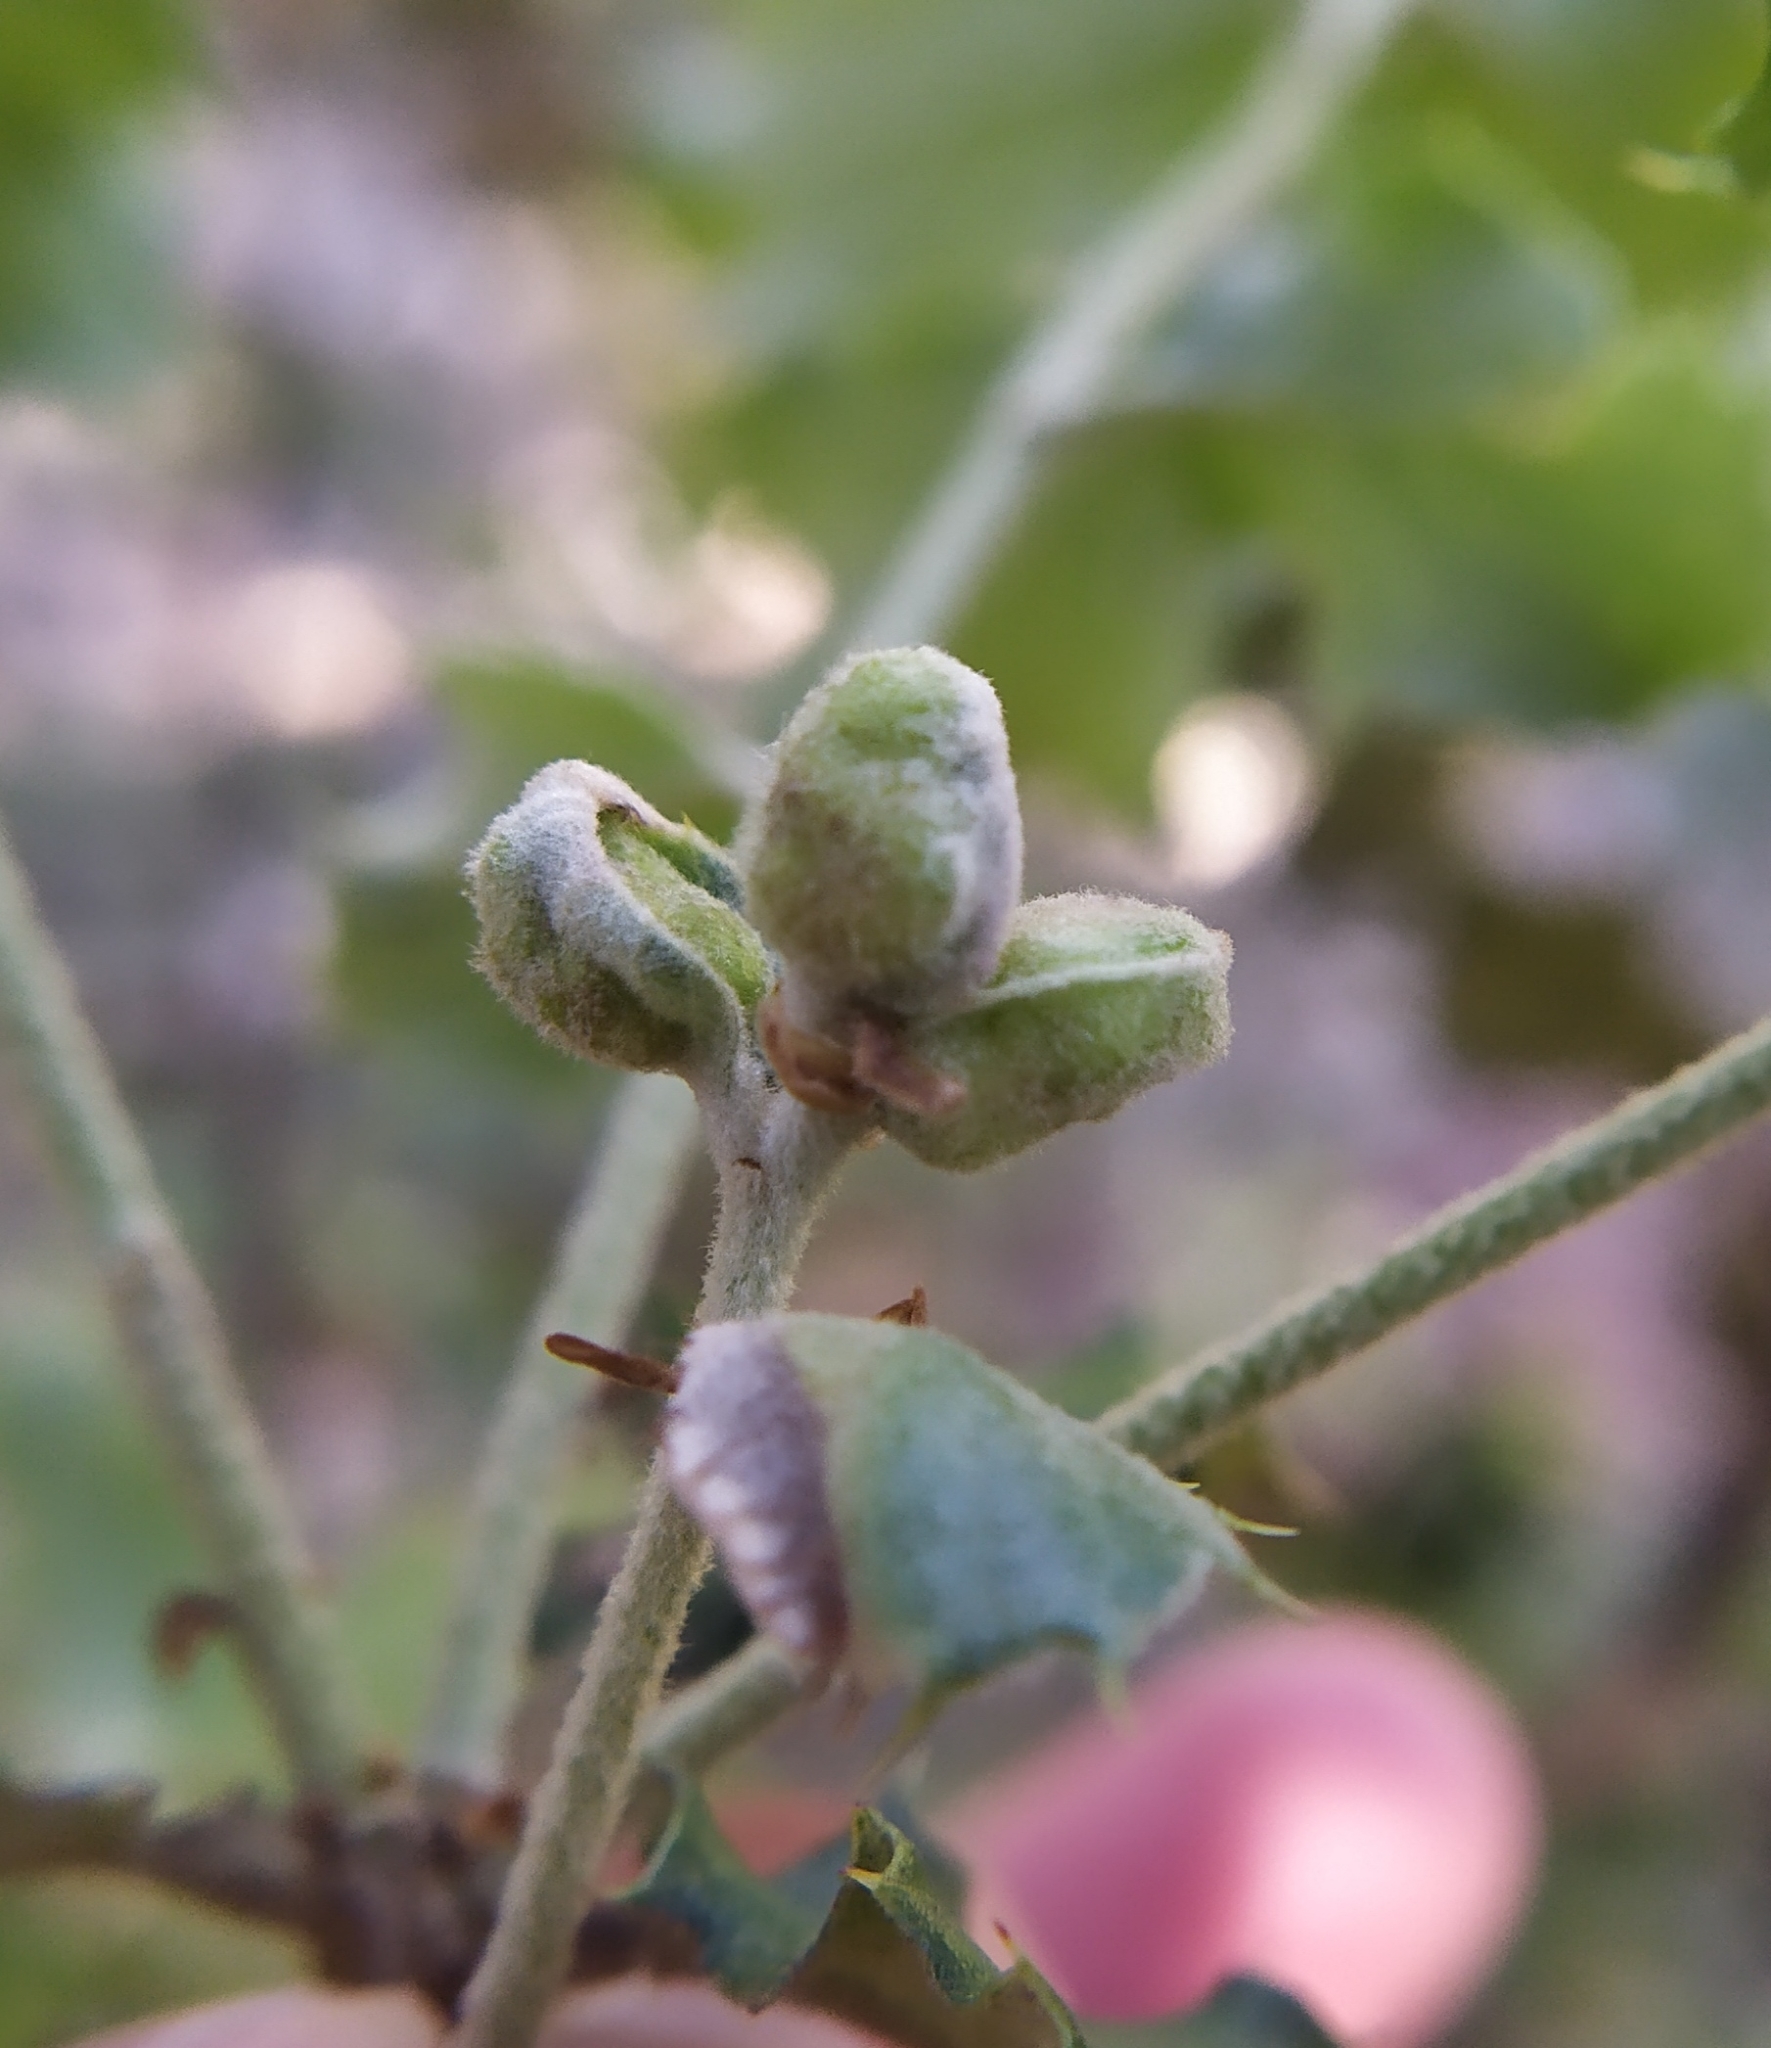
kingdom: Animalia
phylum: Arthropoda
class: Insecta
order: Hymenoptera
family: Cynipidae
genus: Plagiotrochus
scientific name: Plagiotrochus quercusilicis
